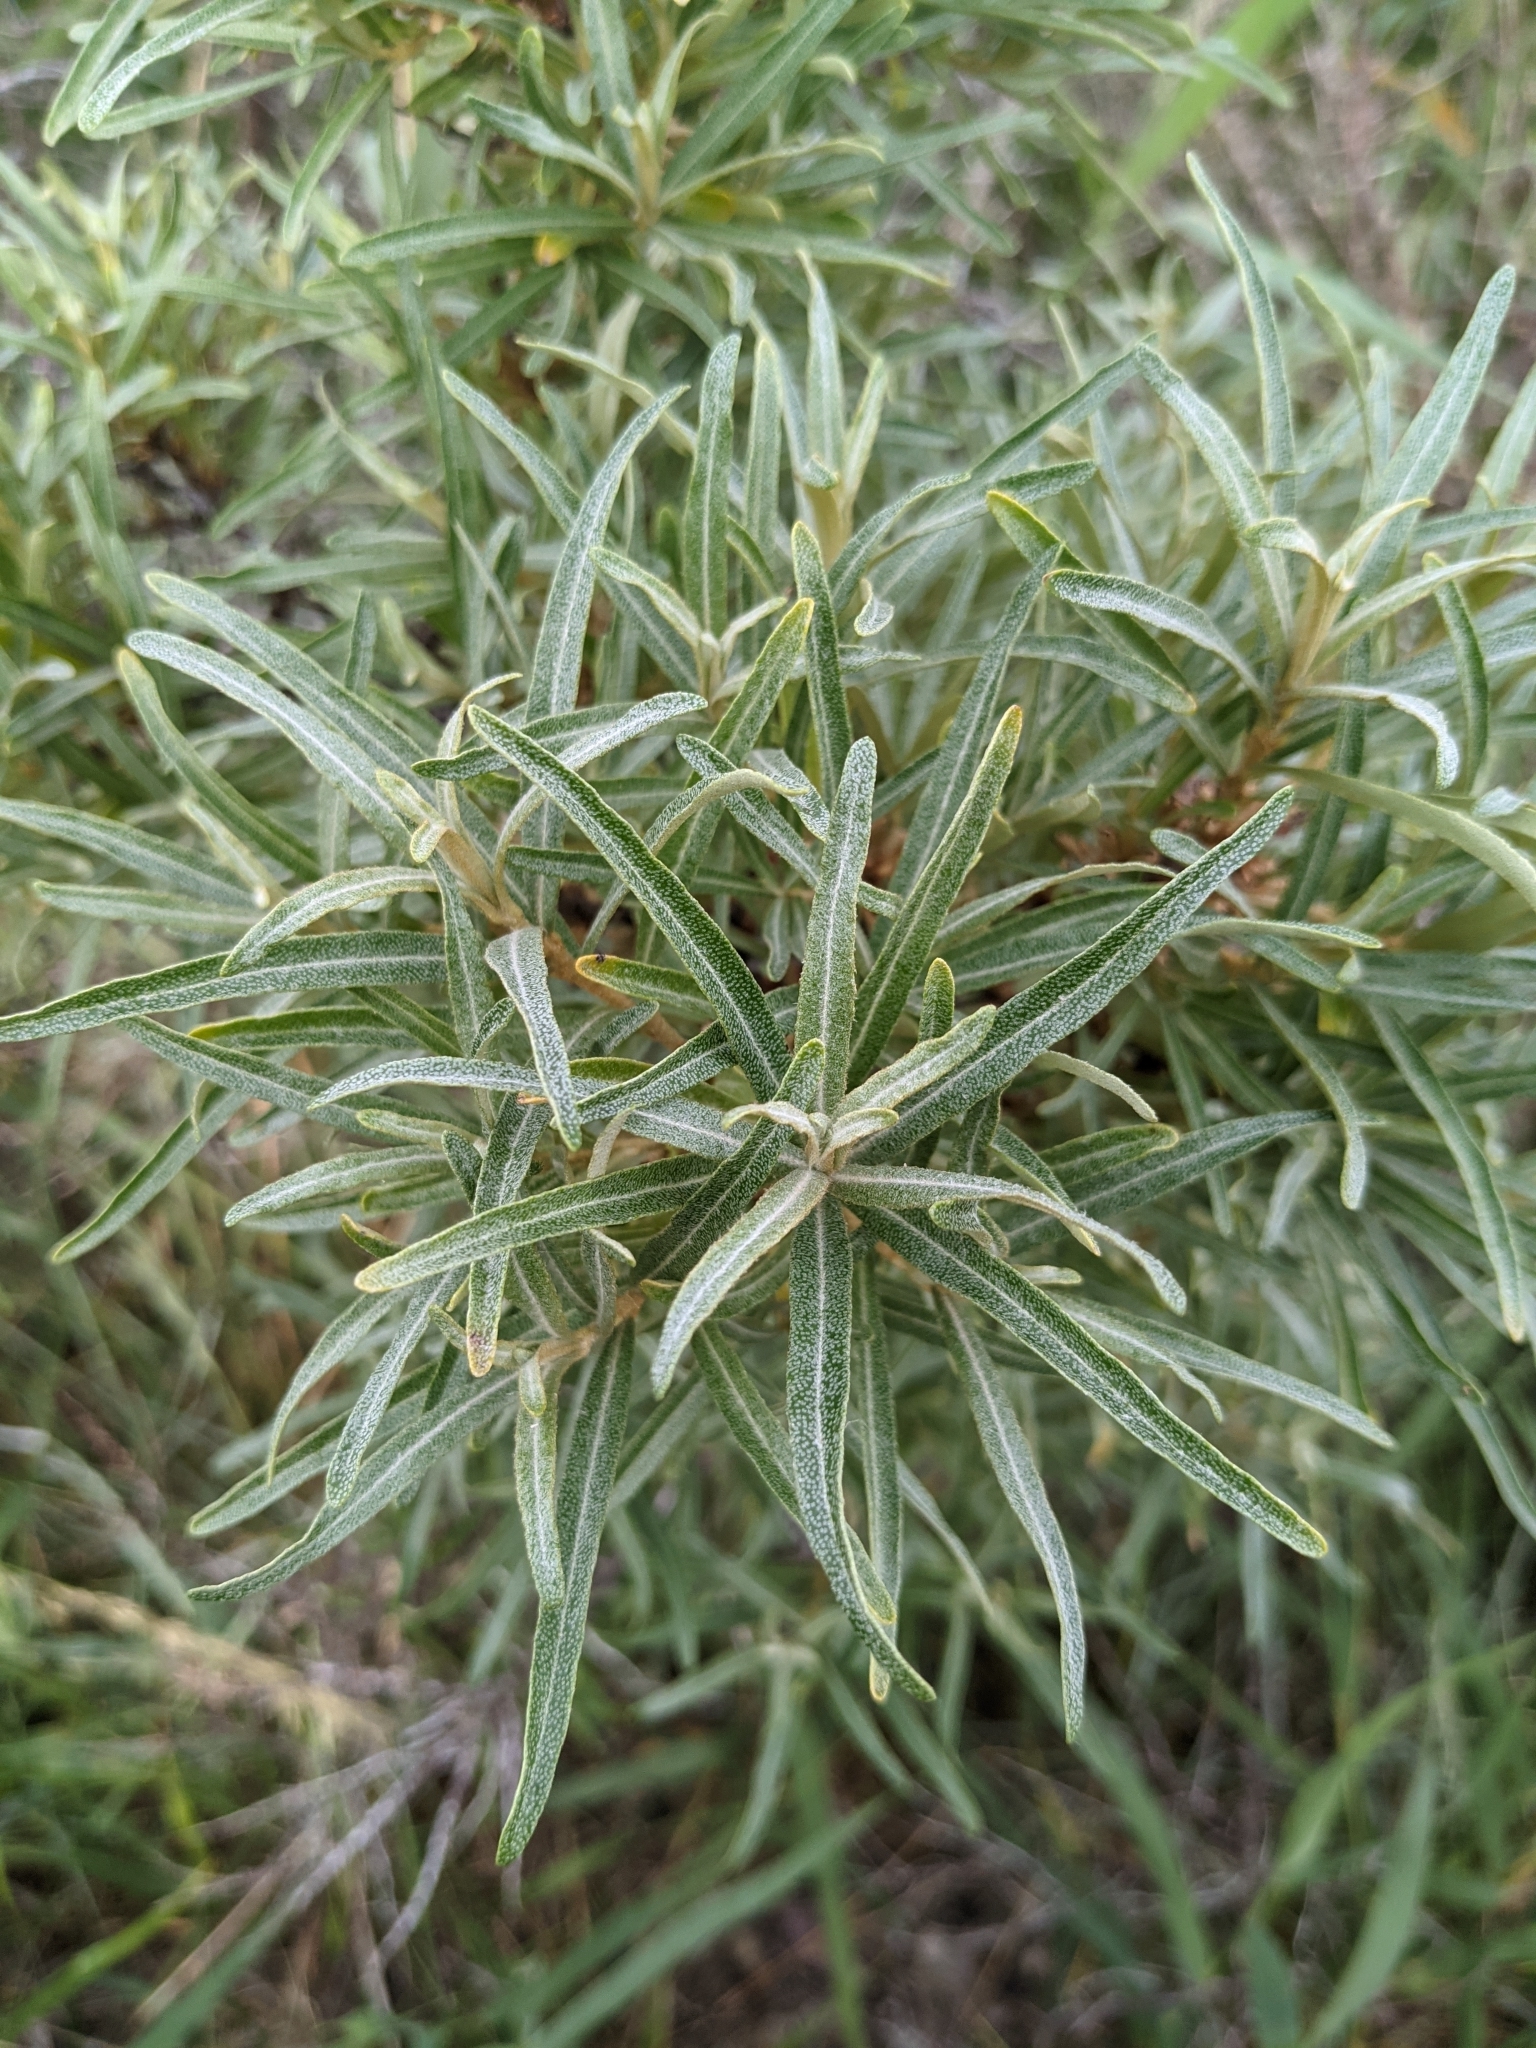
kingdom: Plantae
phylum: Tracheophyta
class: Magnoliopsida
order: Rosales
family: Elaeagnaceae
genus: Hippophae
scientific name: Hippophae rhamnoides
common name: Sea-buckthorn
